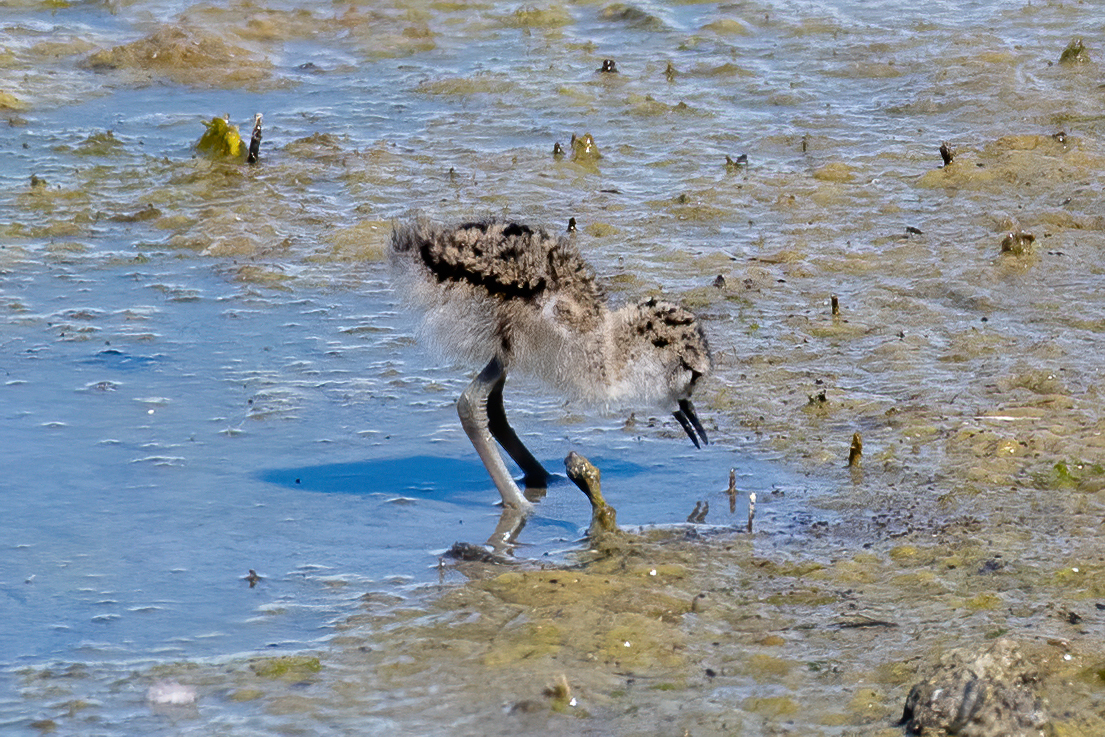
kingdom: Animalia
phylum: Chordata
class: Aves
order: Charadriiformes
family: Recurvirostridae
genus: Himantopus
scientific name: Himantopus mexicanus
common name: Black-necked stilt
